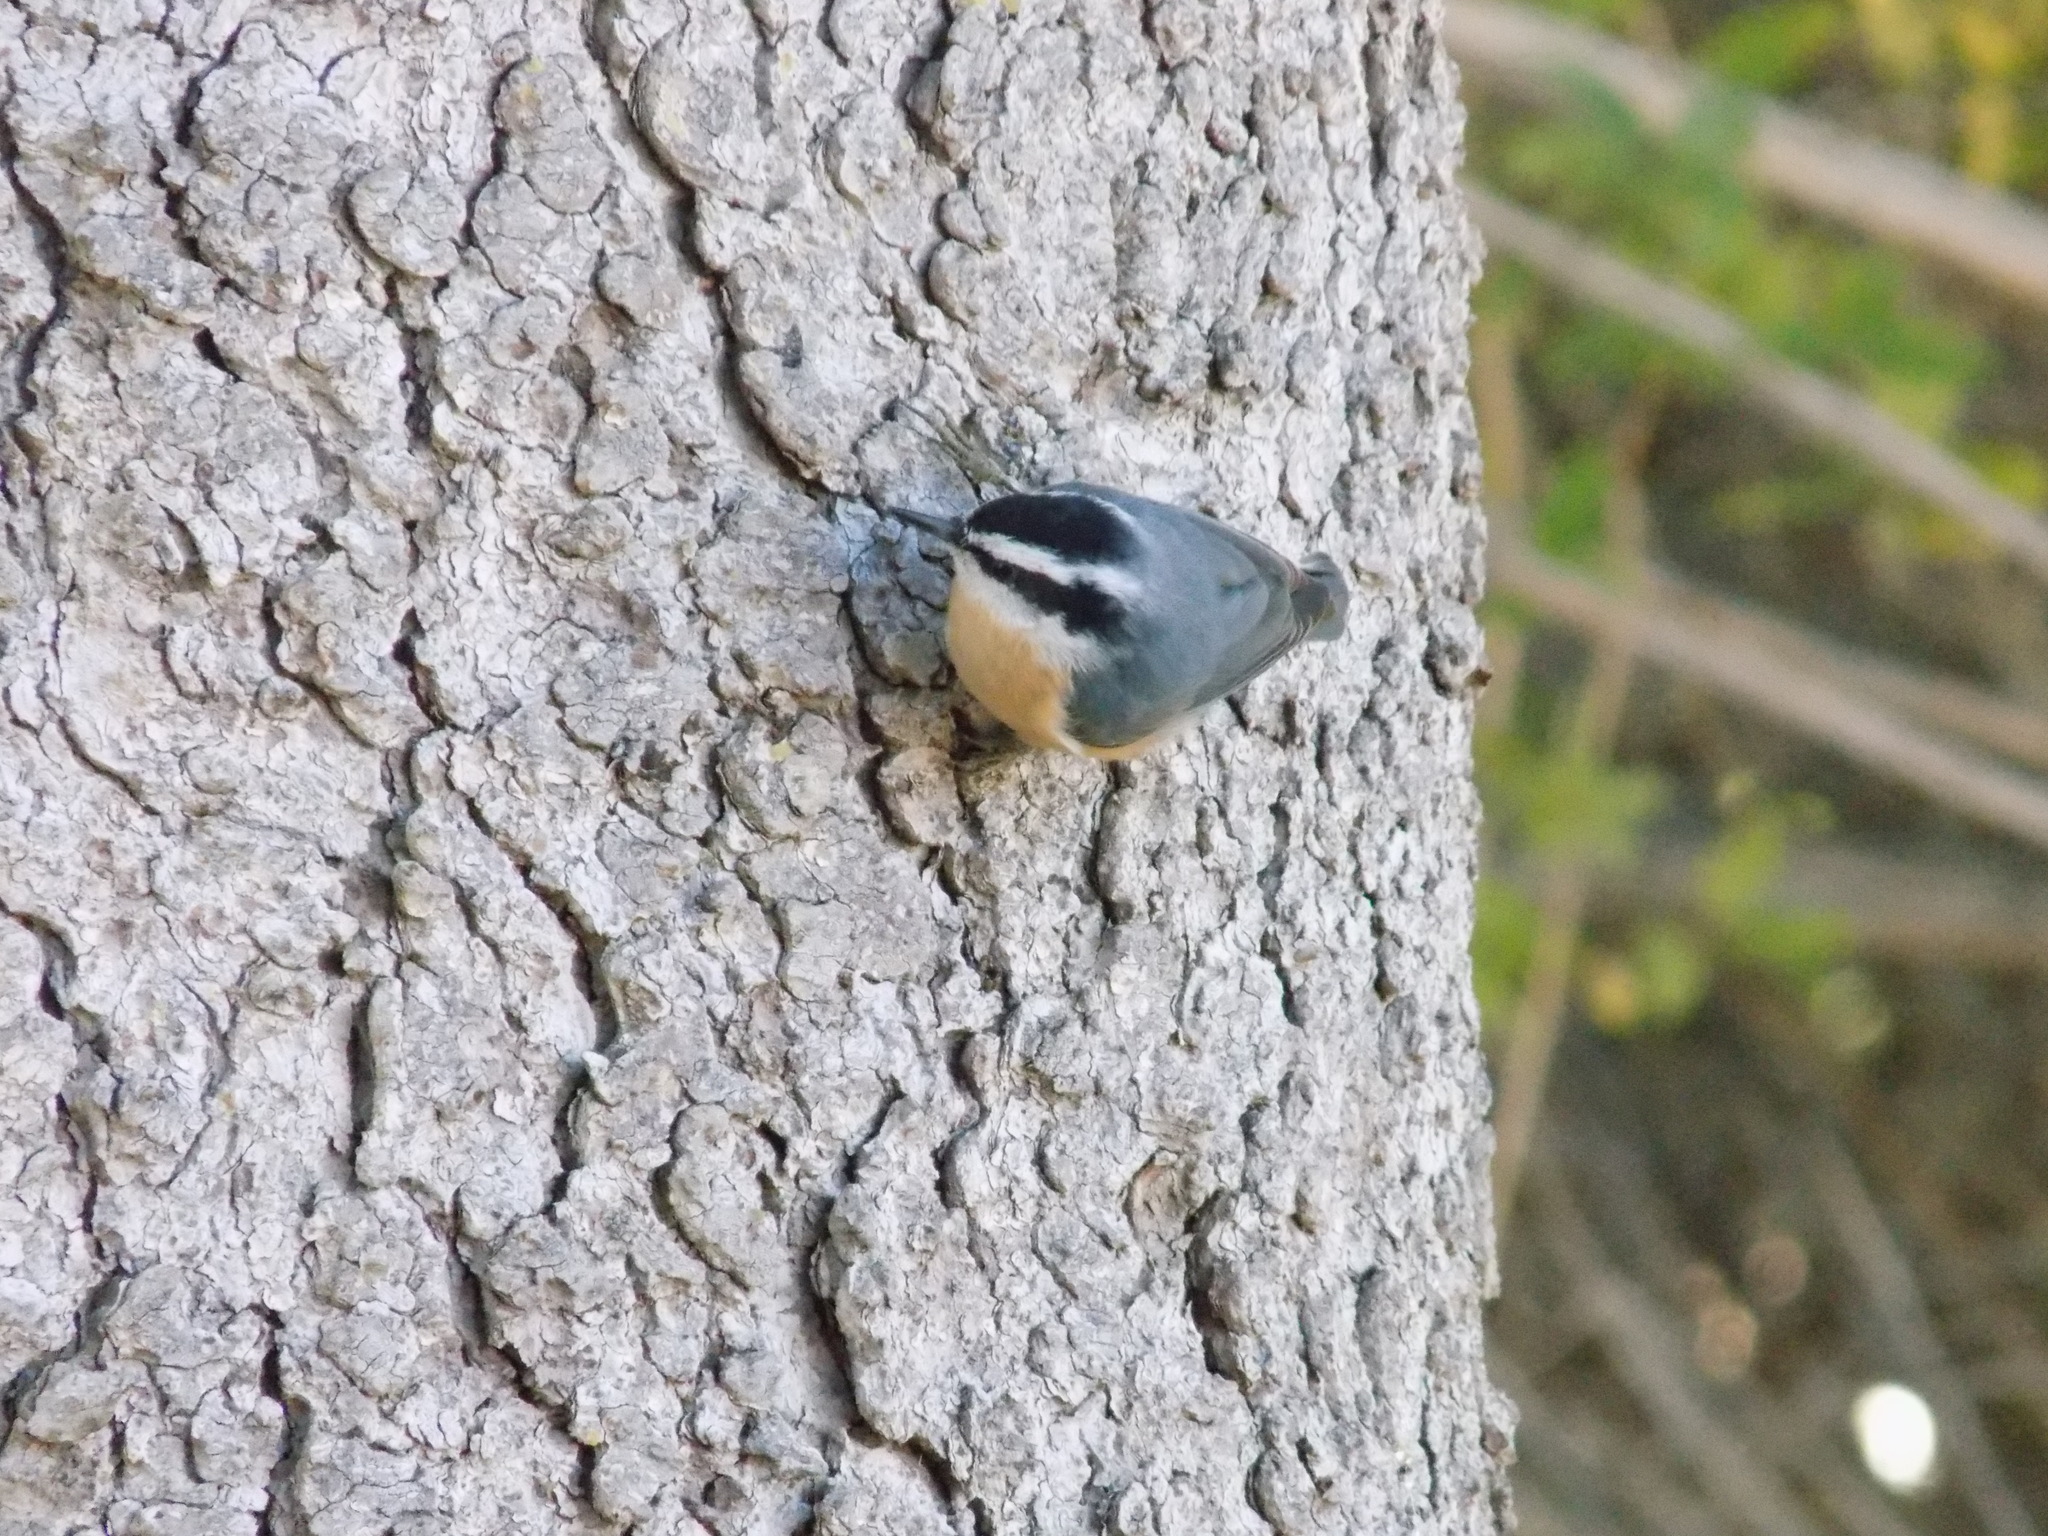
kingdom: Animalia
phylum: Chordata
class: Aves
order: Passeriformes
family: Sittidae
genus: Sitta
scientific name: Sitta canadensis
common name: Red-breasted nuthatch
